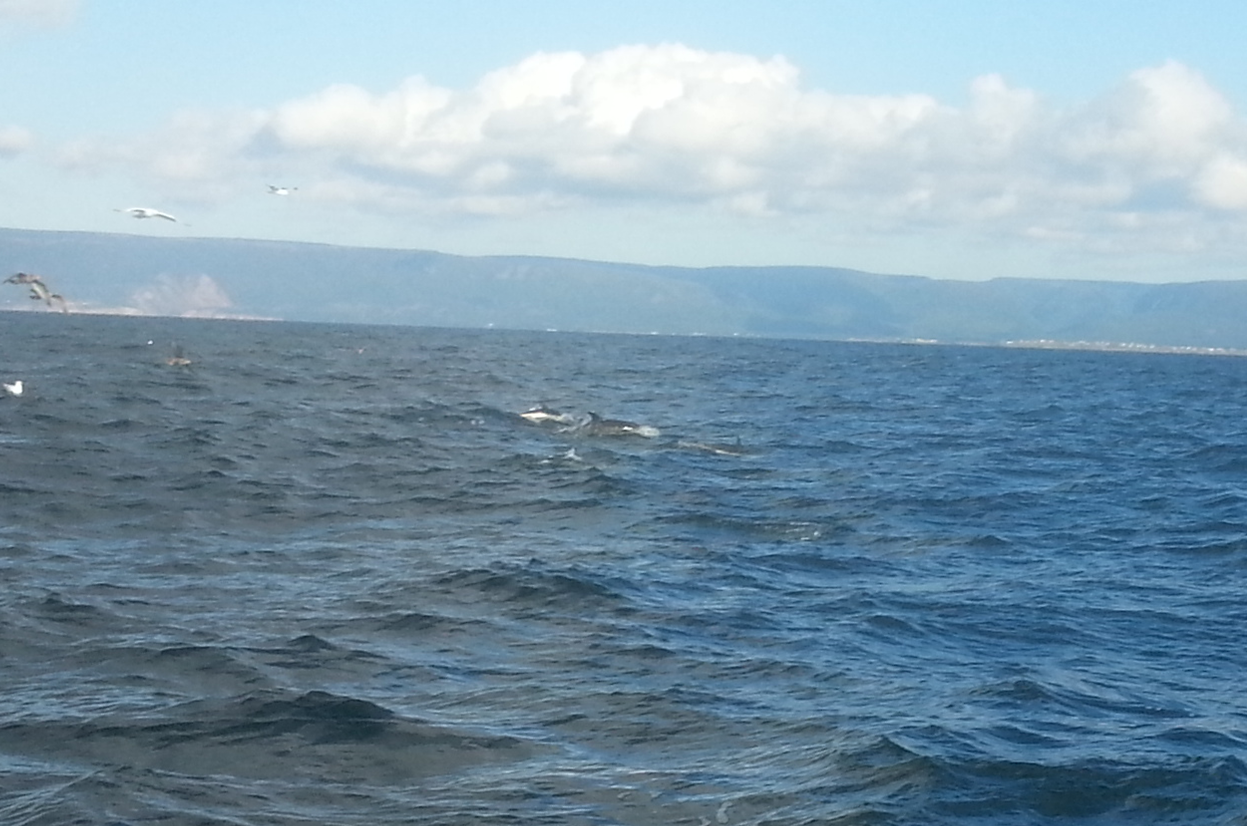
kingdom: Animalia
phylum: Chordata
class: Mammalia
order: Cetacea
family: Delphinidae
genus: Lagenorhynchus
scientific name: Lagenorhynchus acutus
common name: Atlantic white-sided dolphin
